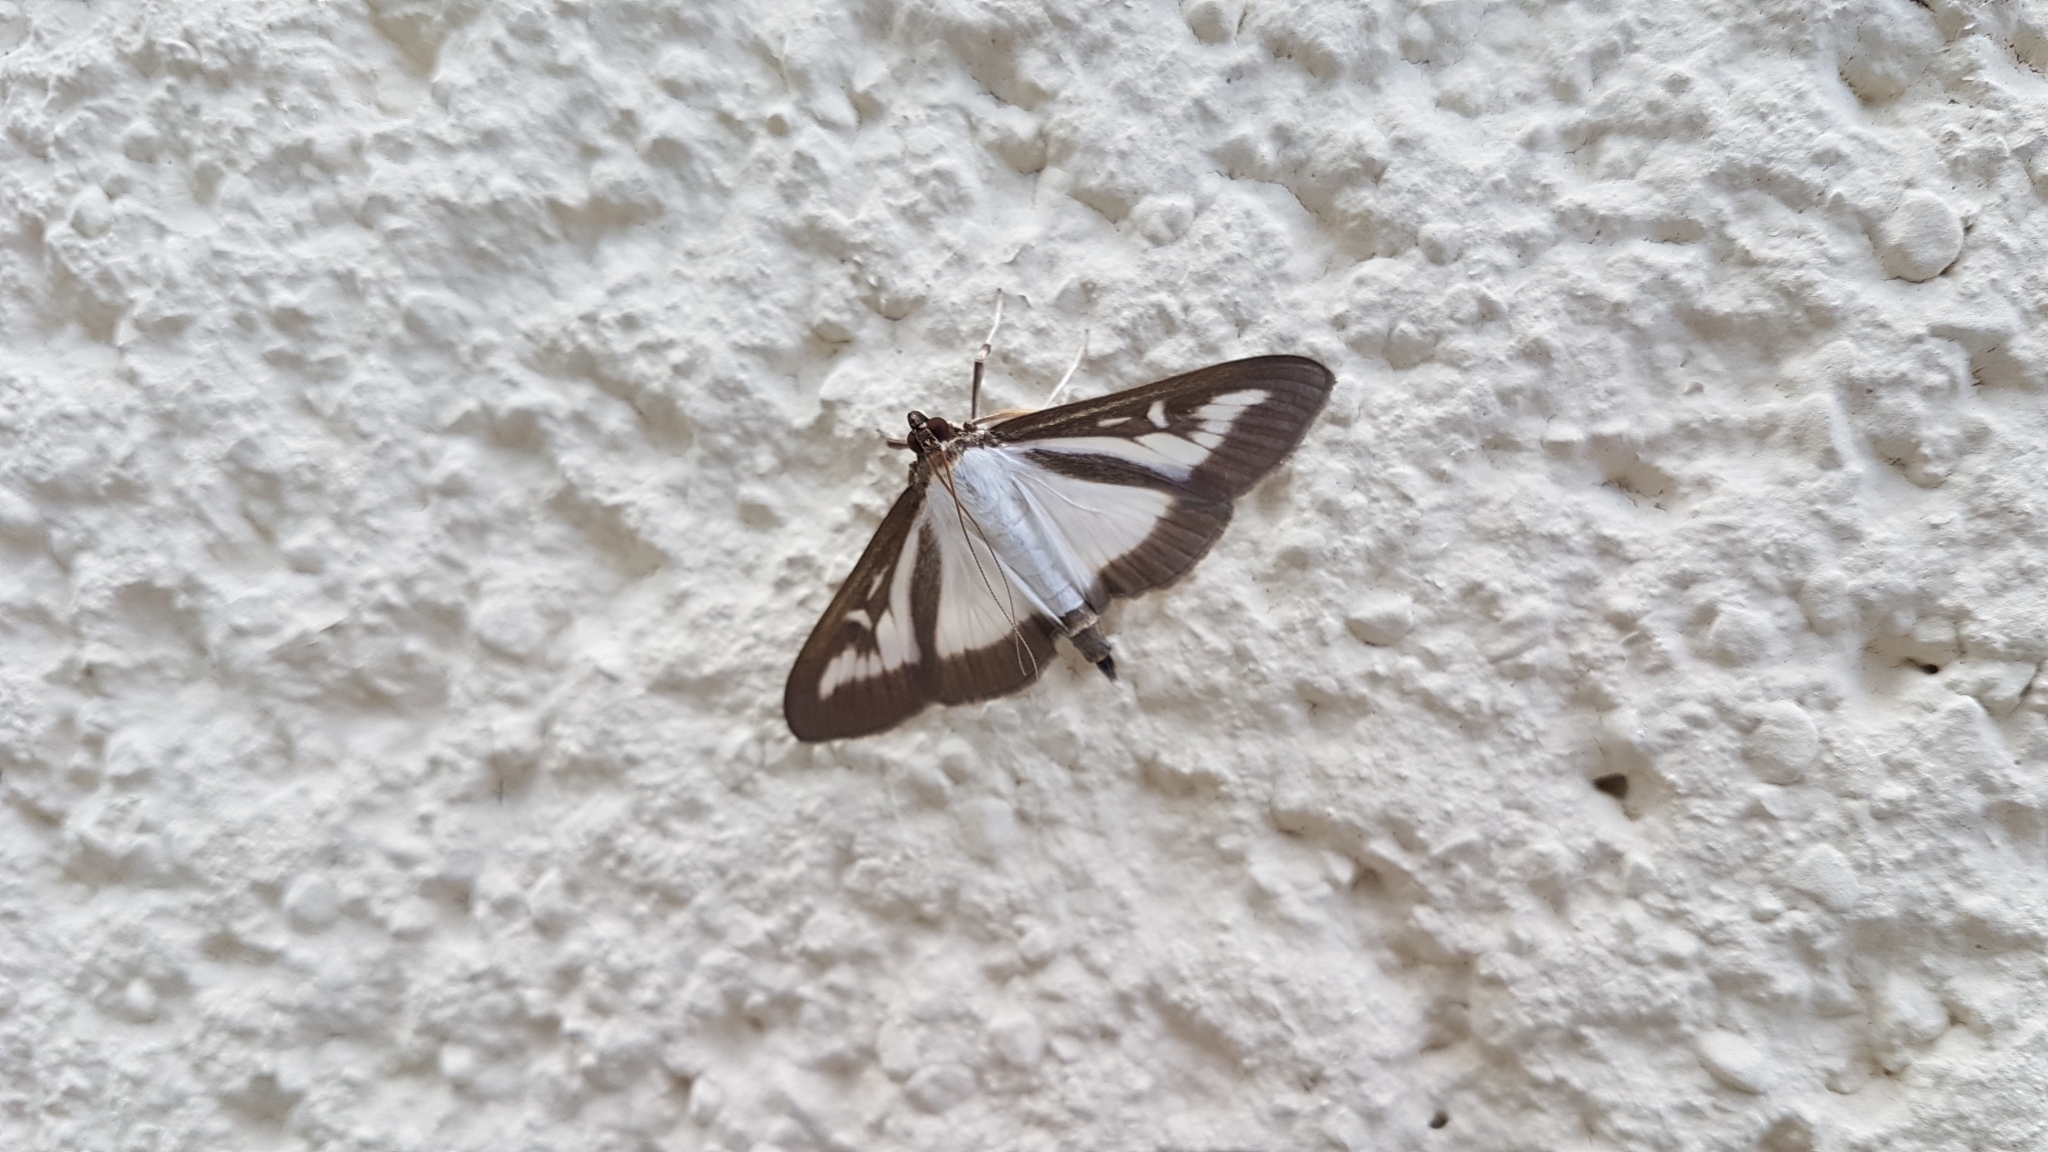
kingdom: Animalia
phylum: Arthropoda
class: Insecta
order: Lepidoptera
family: Crambidae
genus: Cydalima
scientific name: Cydalima perspectalis
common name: Box tree moth
